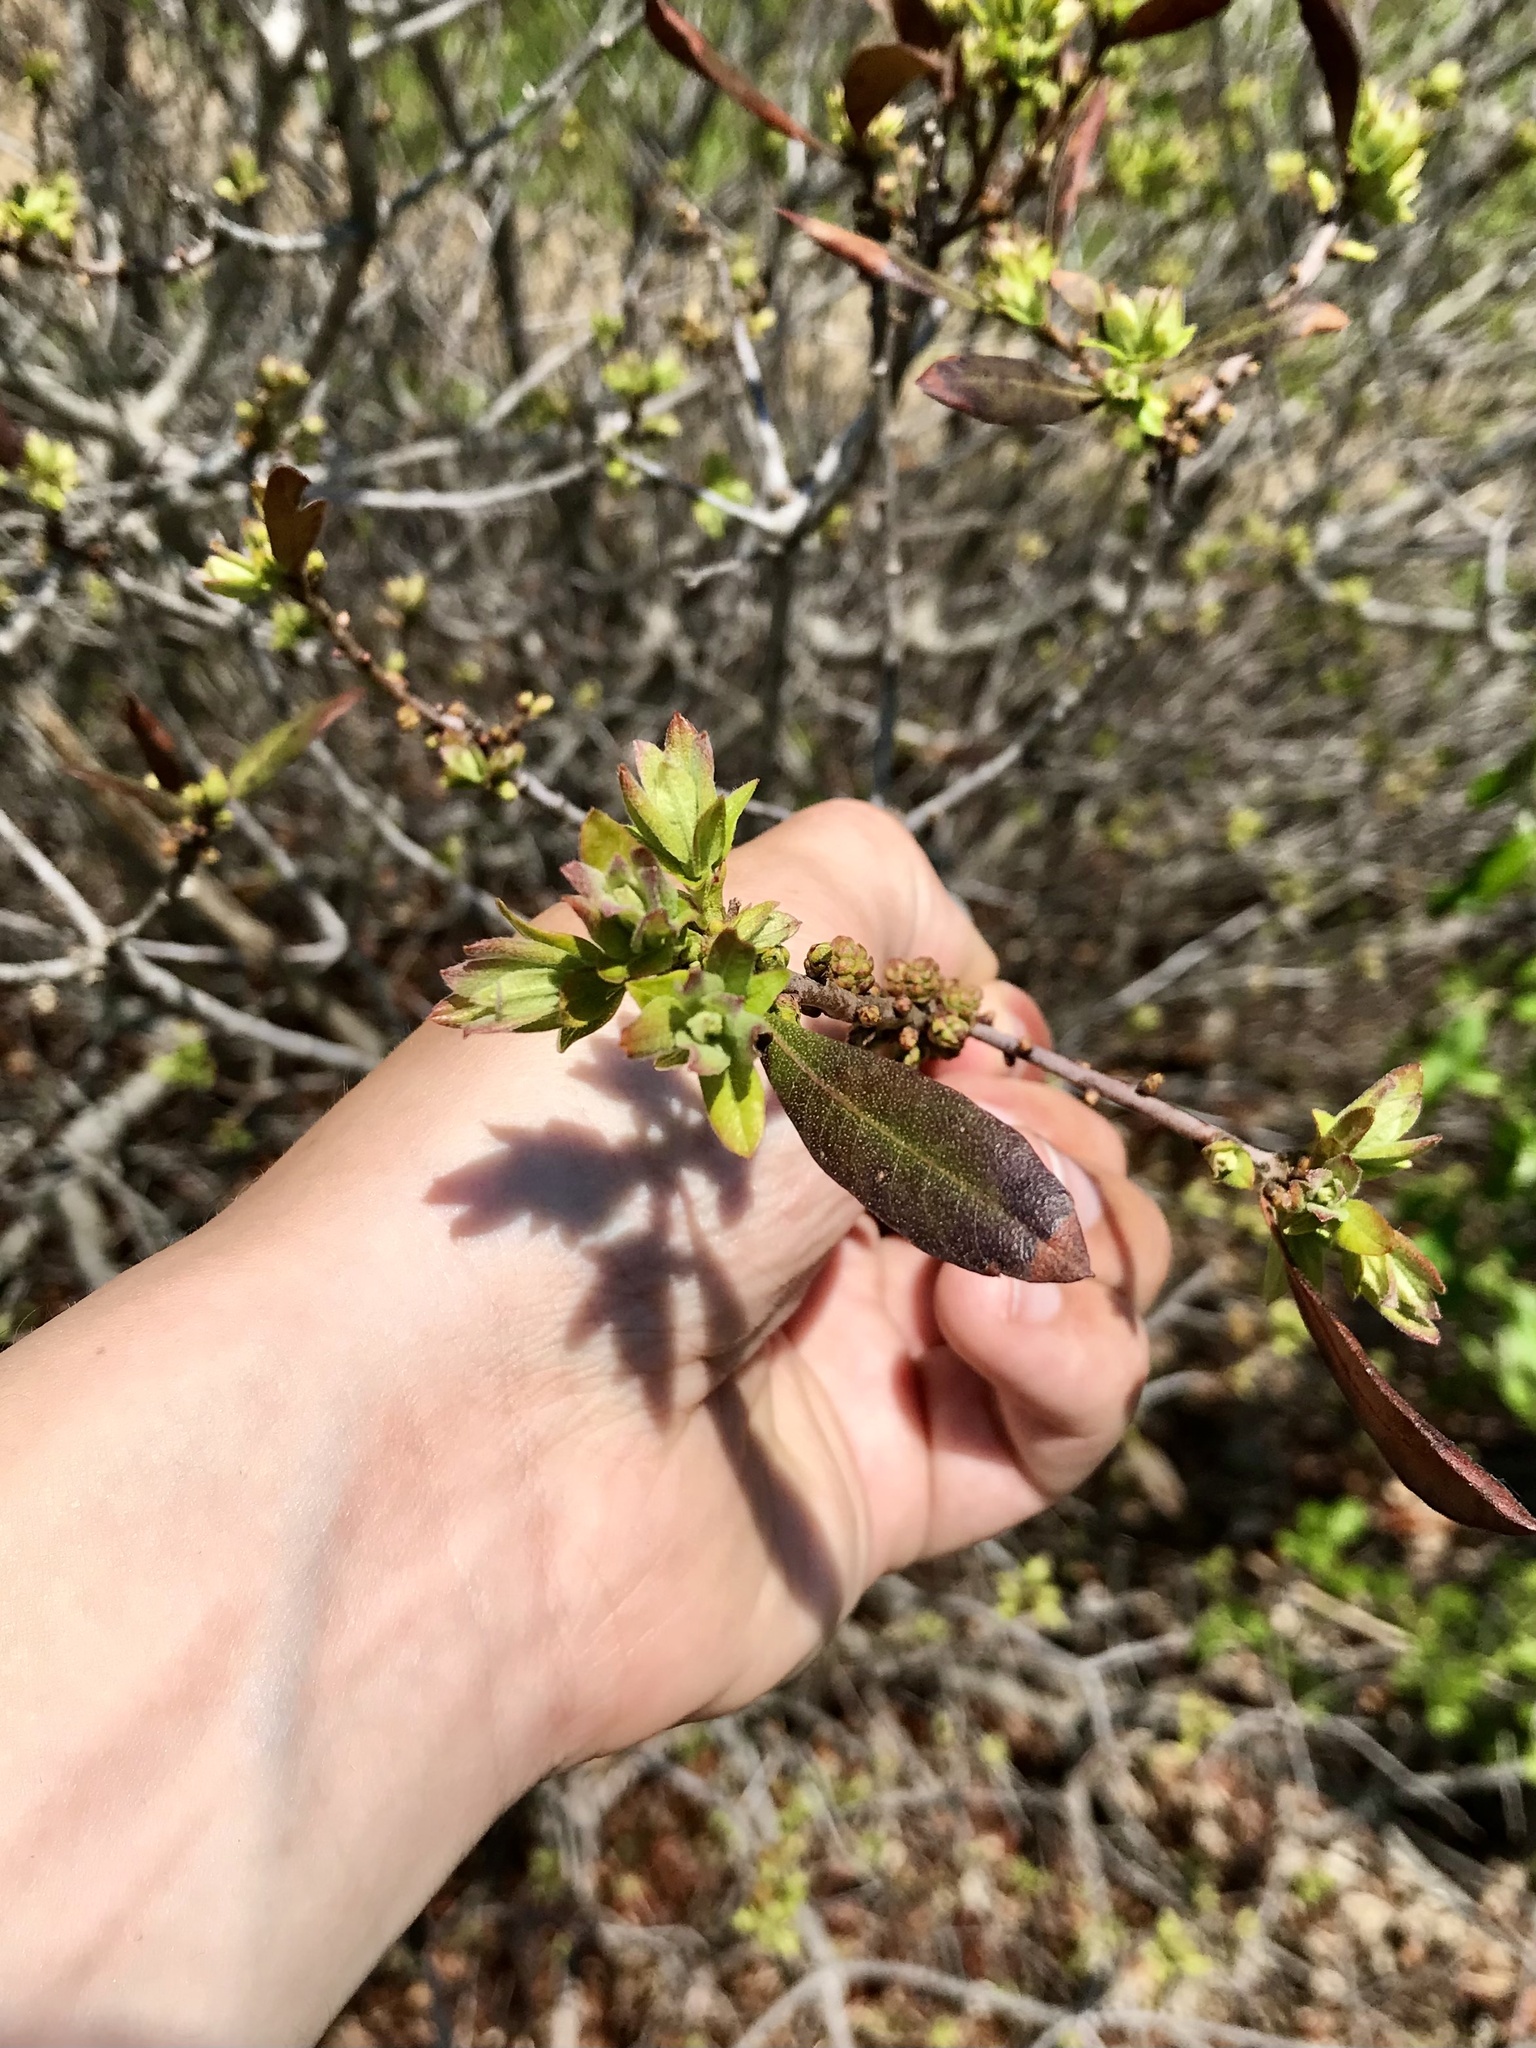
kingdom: Plantae
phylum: Tracheophyta
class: Magnoliopsida
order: Fagales
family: Myricaceae
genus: Morella
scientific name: Morella pensylvanica
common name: Northern bayberry
